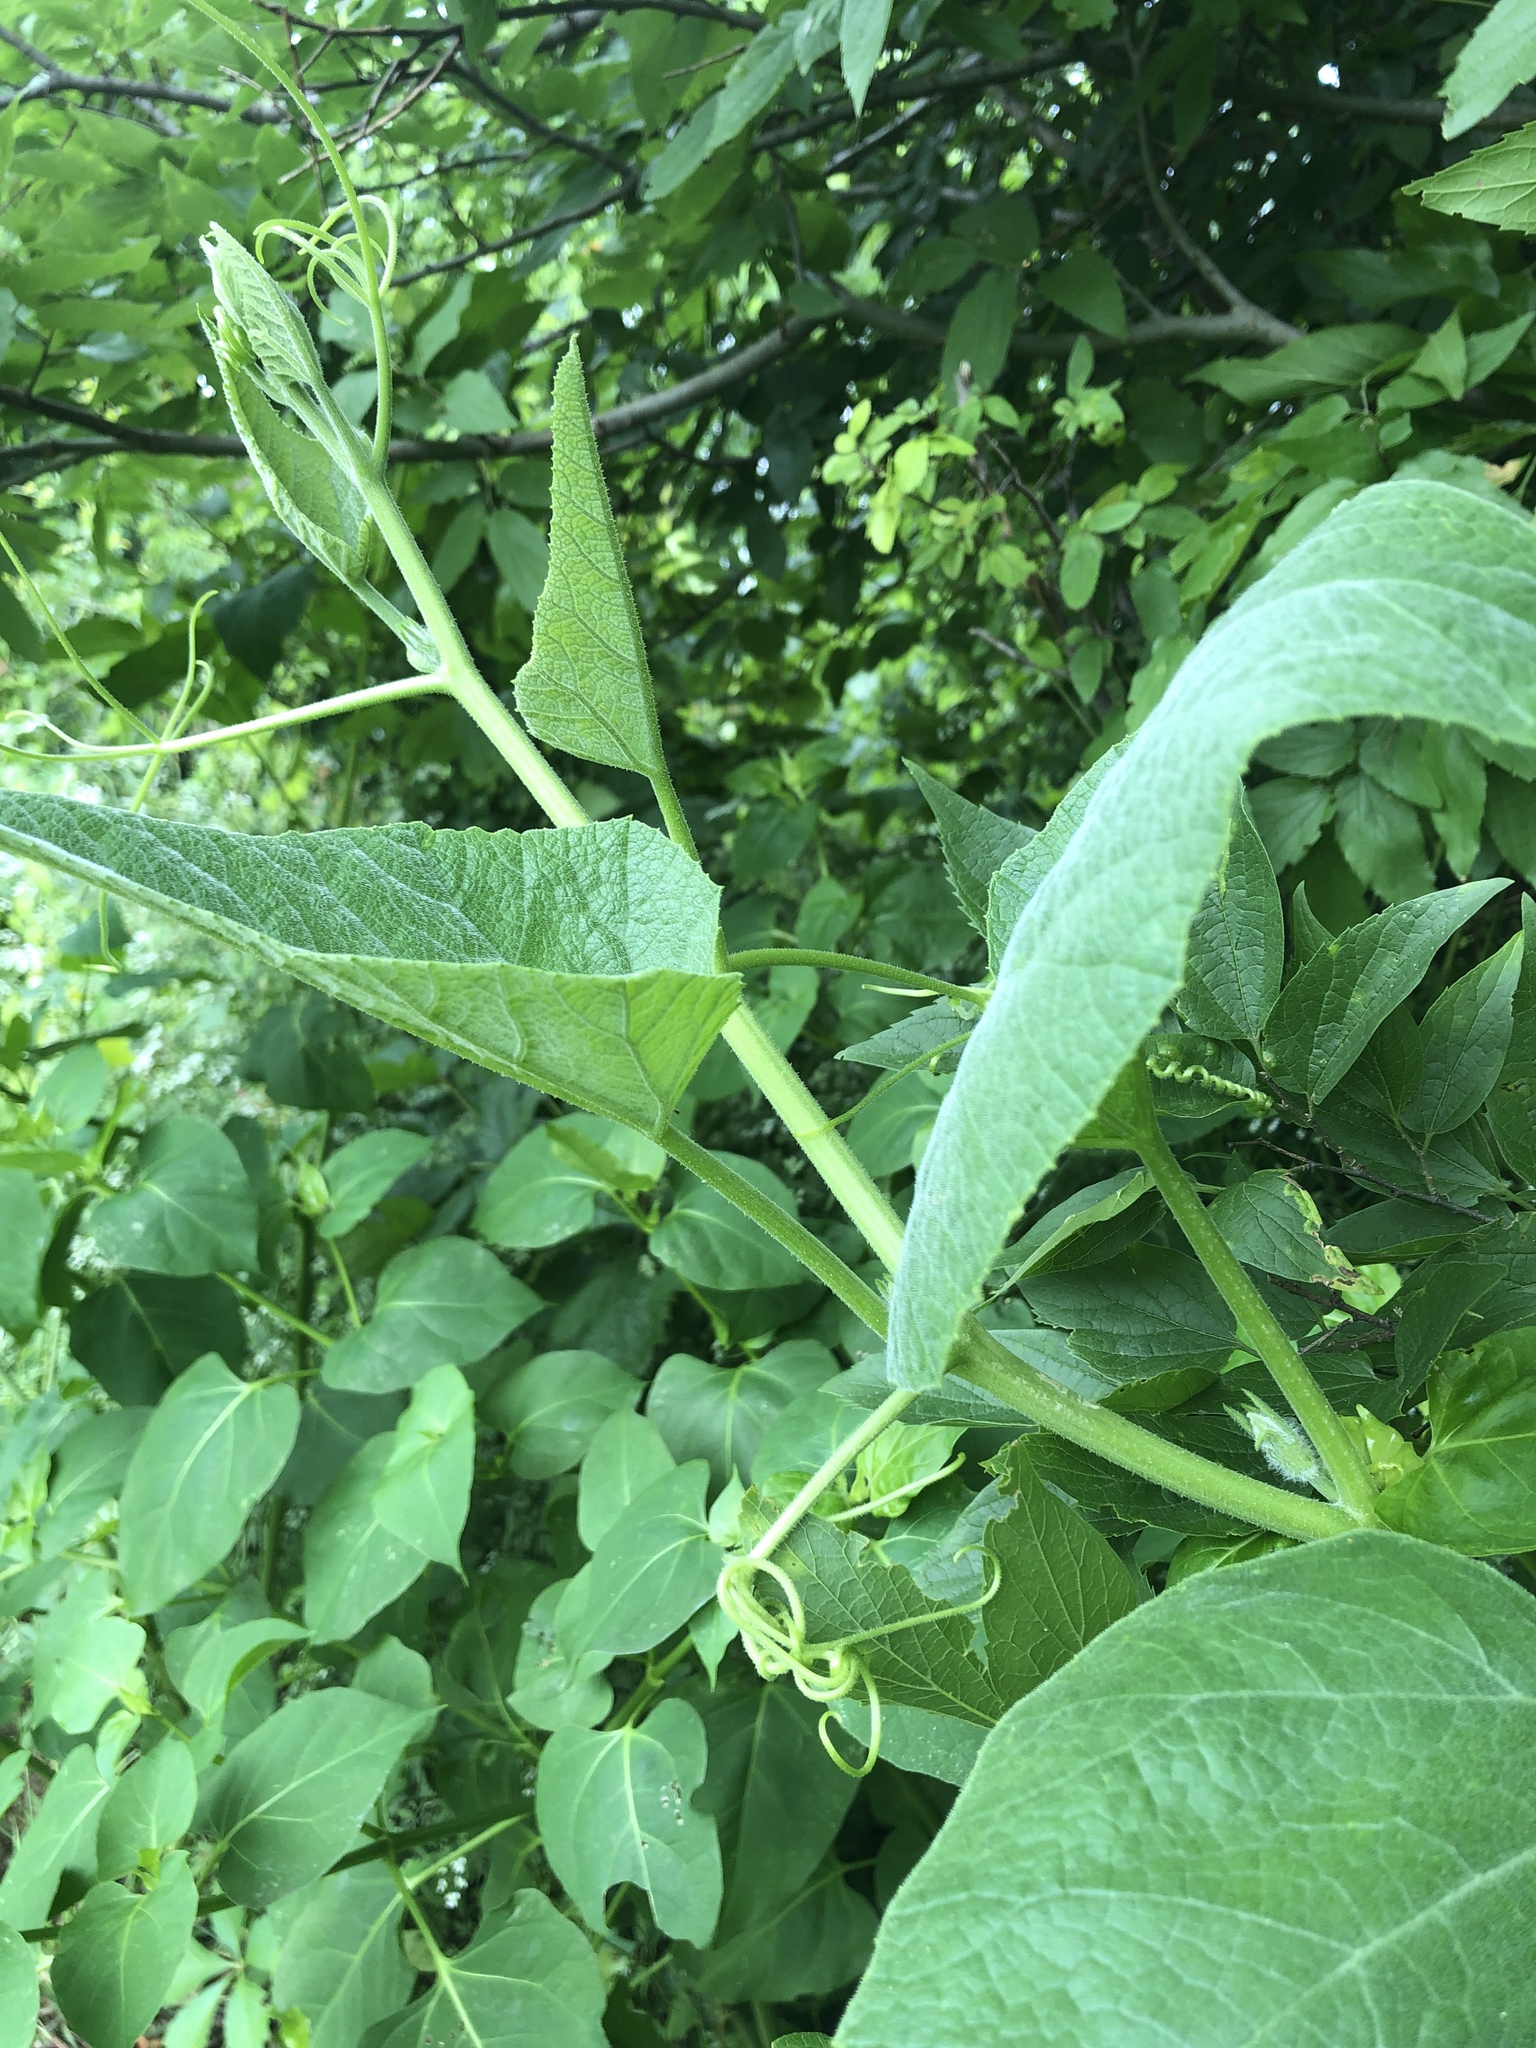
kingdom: Plantae
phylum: Tracheophyta
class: Magnoliopsida
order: Cucurbitales
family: Cucurbitaceae
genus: Cucurbita
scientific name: Cucurbita foetidissima
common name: Buffalo gourd
